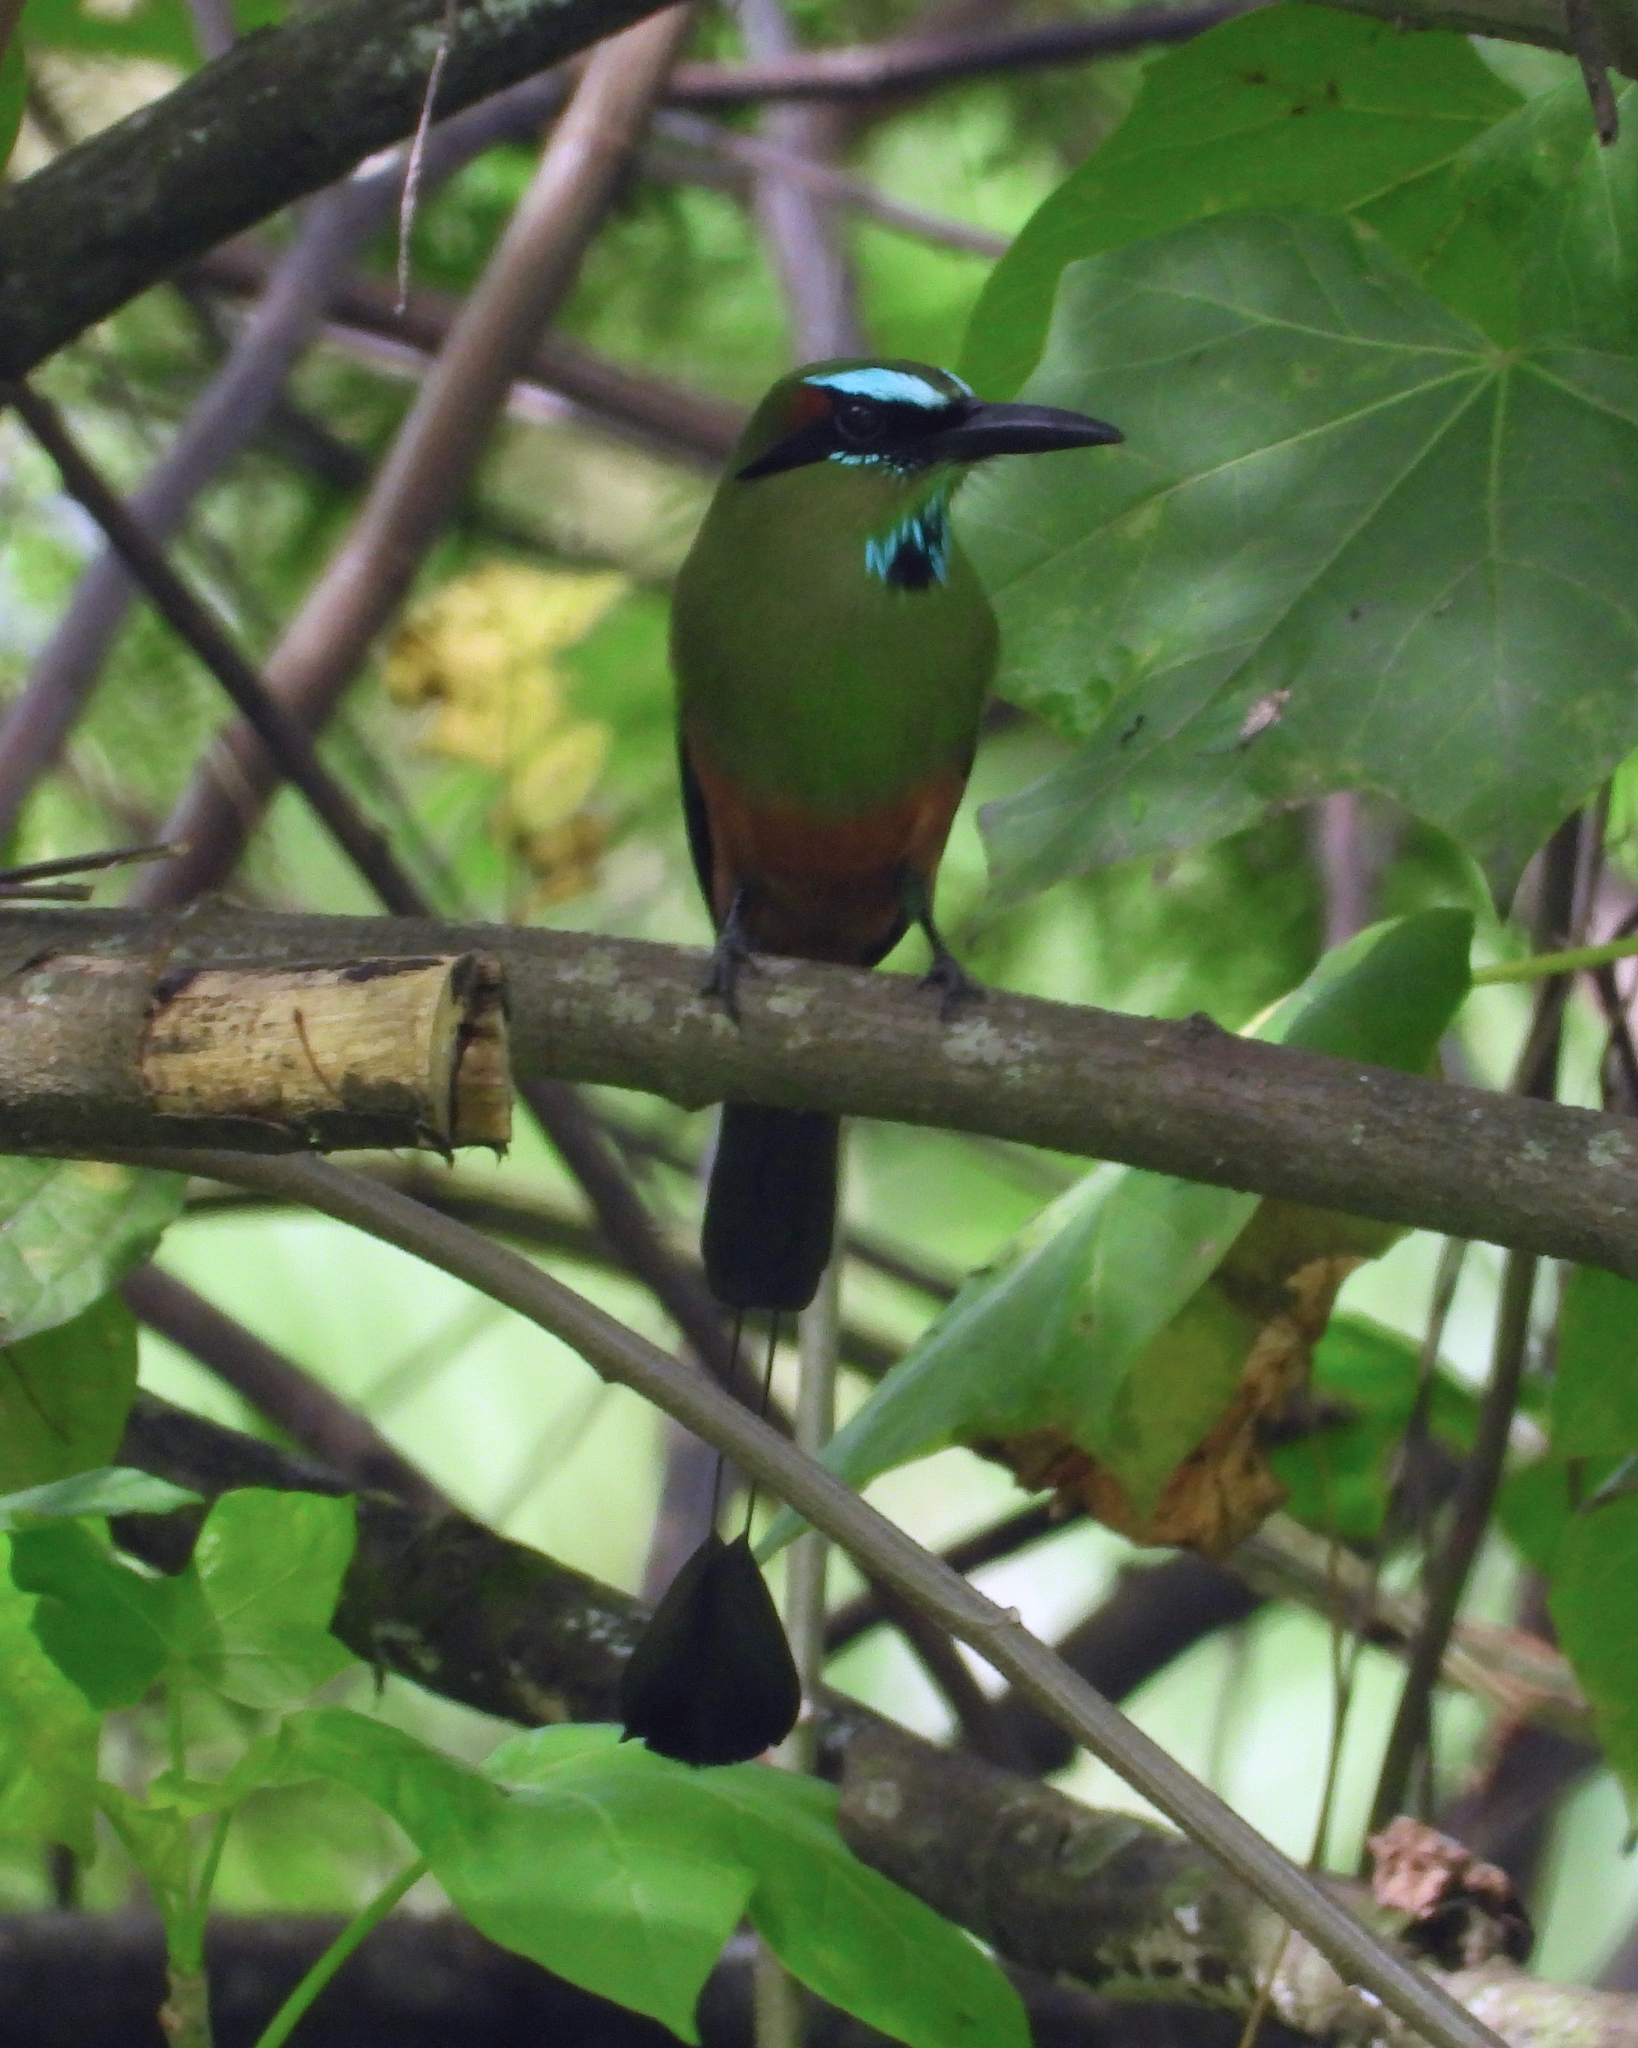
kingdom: Animalia
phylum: Chordata
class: Aves
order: Coraciiformes
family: Momotidae
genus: Eumomota
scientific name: Eumomota superciliosa
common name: Turquoise-browed motmot
